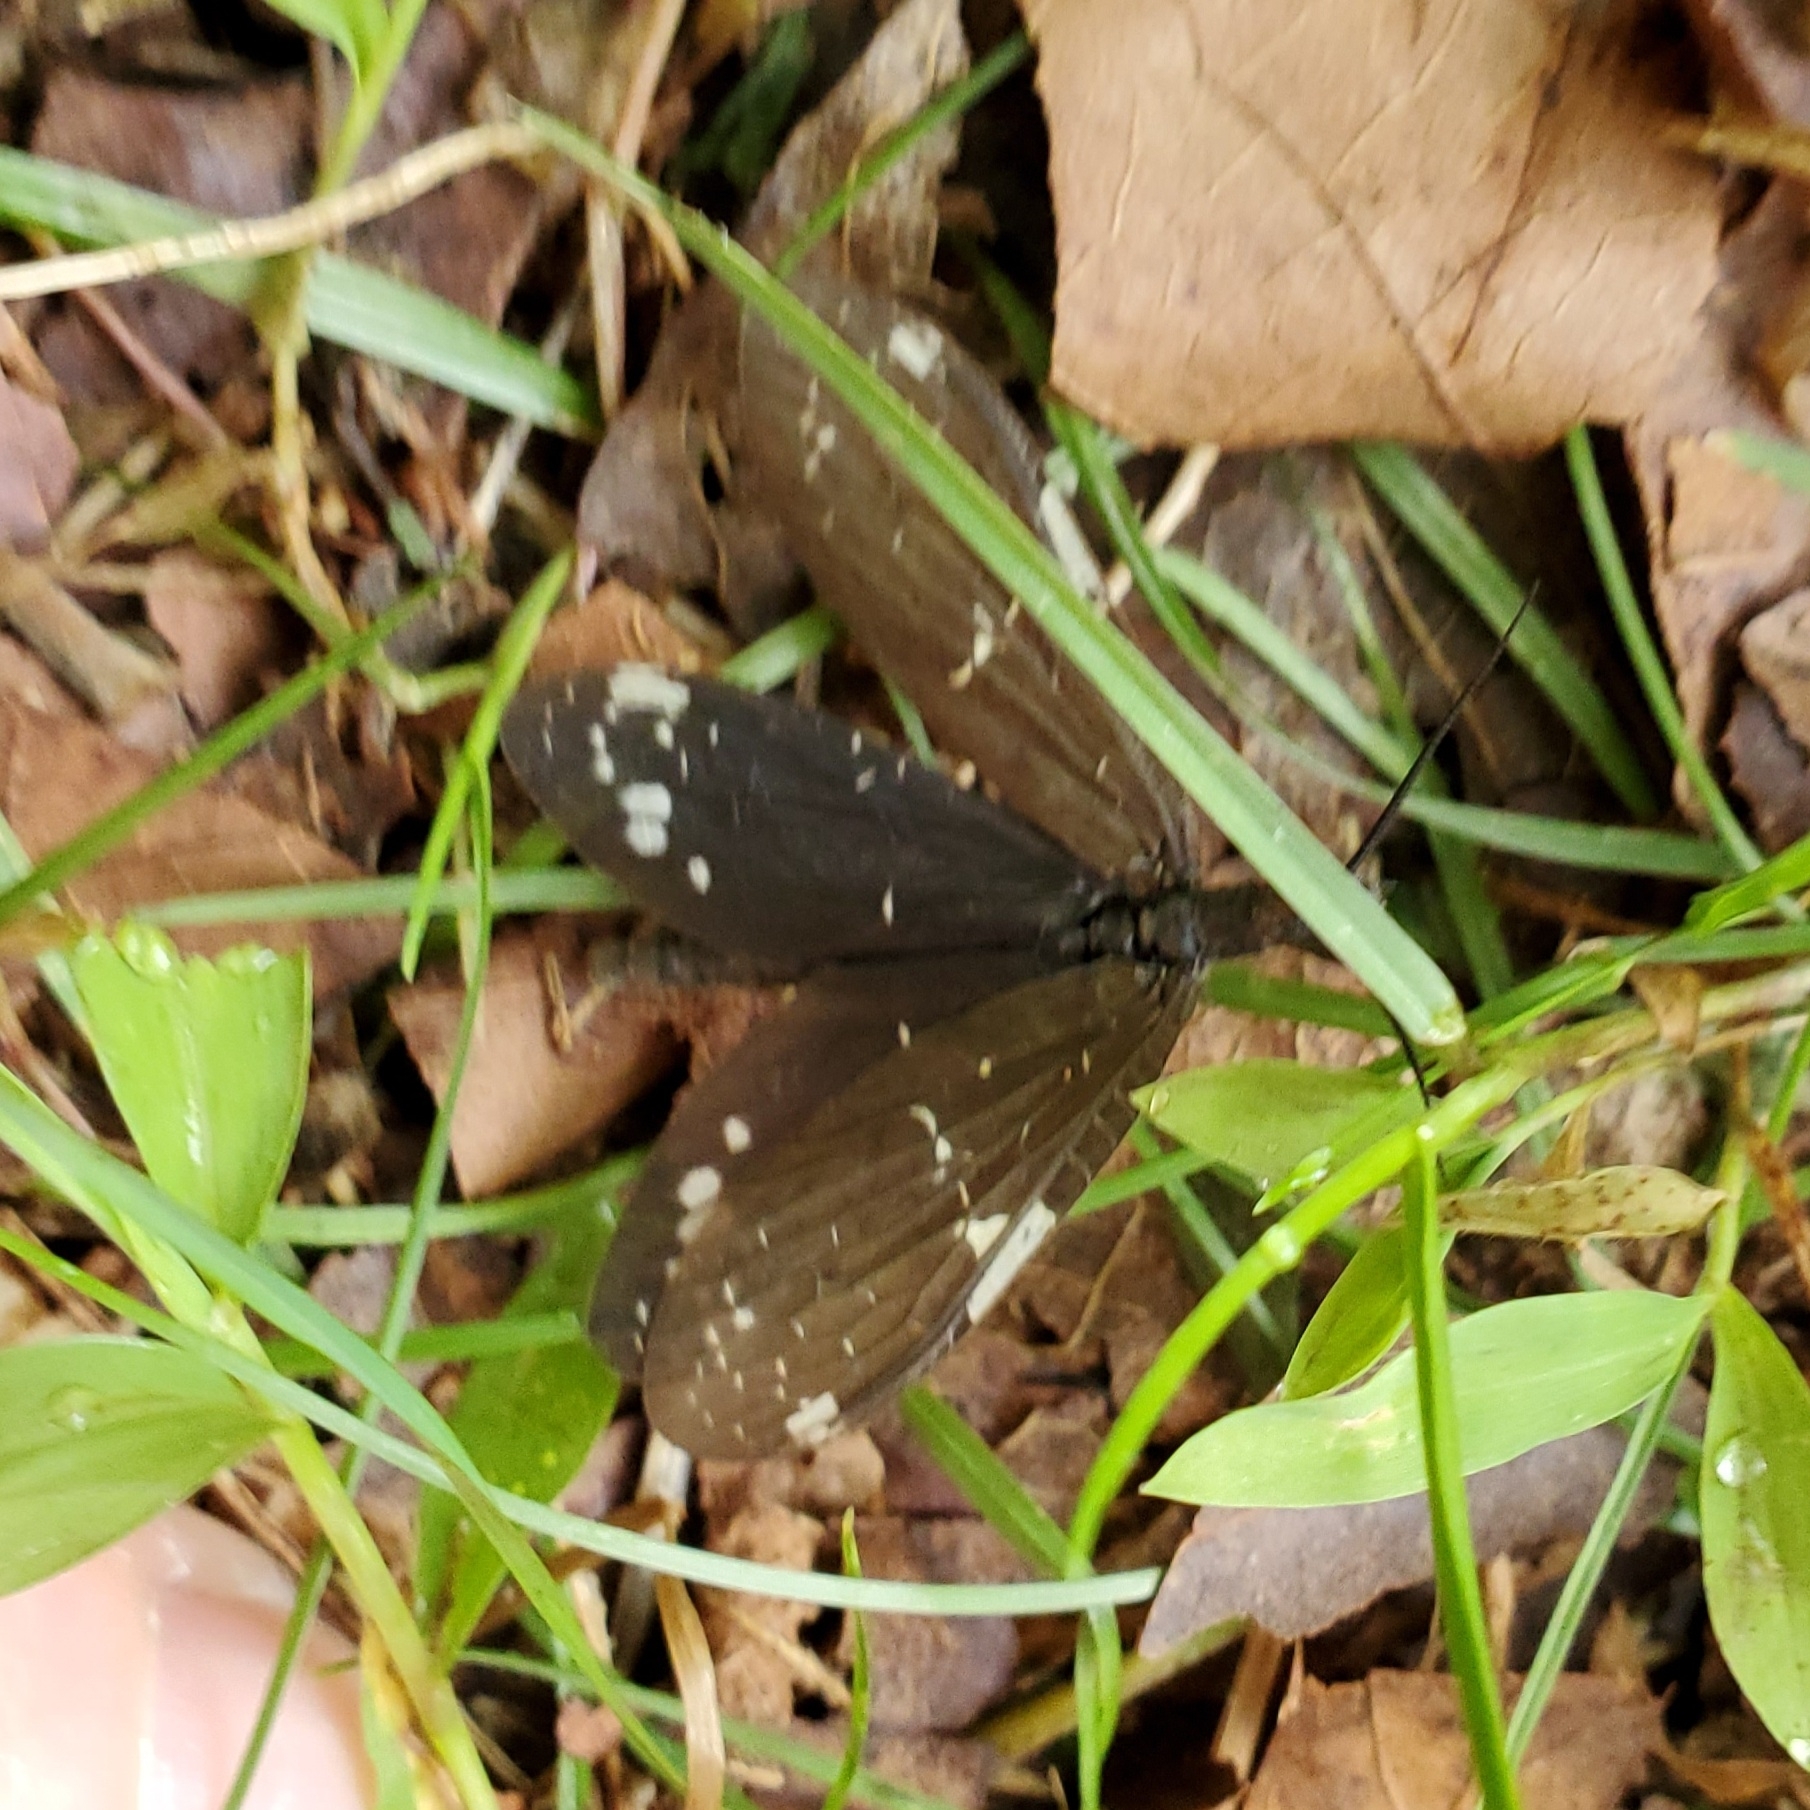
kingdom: Animalia
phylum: Arthropoda
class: Insecta
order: Megaloptera
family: Corydalidae
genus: Nigronia
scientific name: Nigronia serricornis
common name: Serrate dark fishfly
